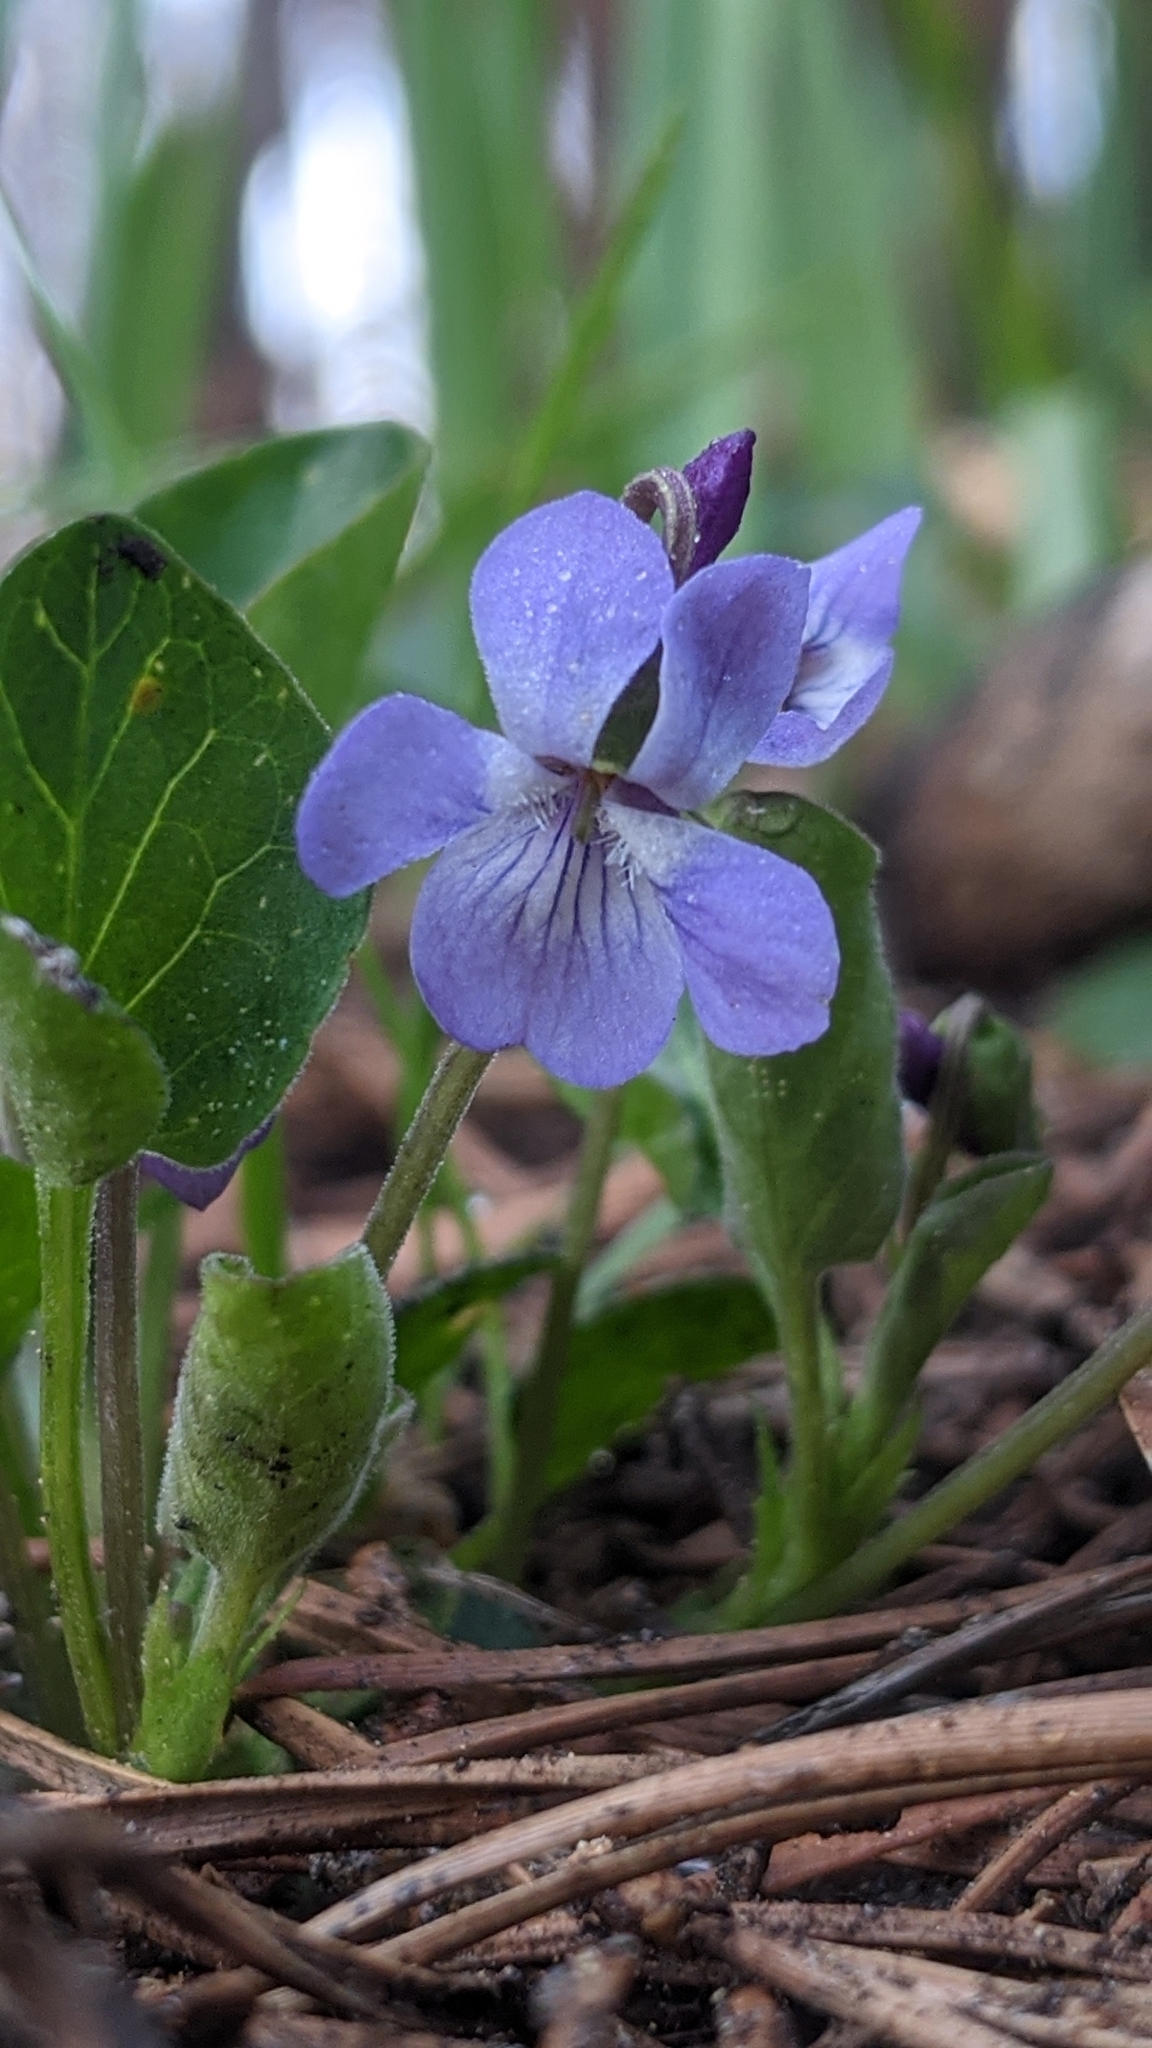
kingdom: Plantae
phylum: Tracheophyta
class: Magnoliopsida
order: Malpighiales
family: Violaceae
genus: Viola
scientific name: Viola adunca
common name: Sand violet
